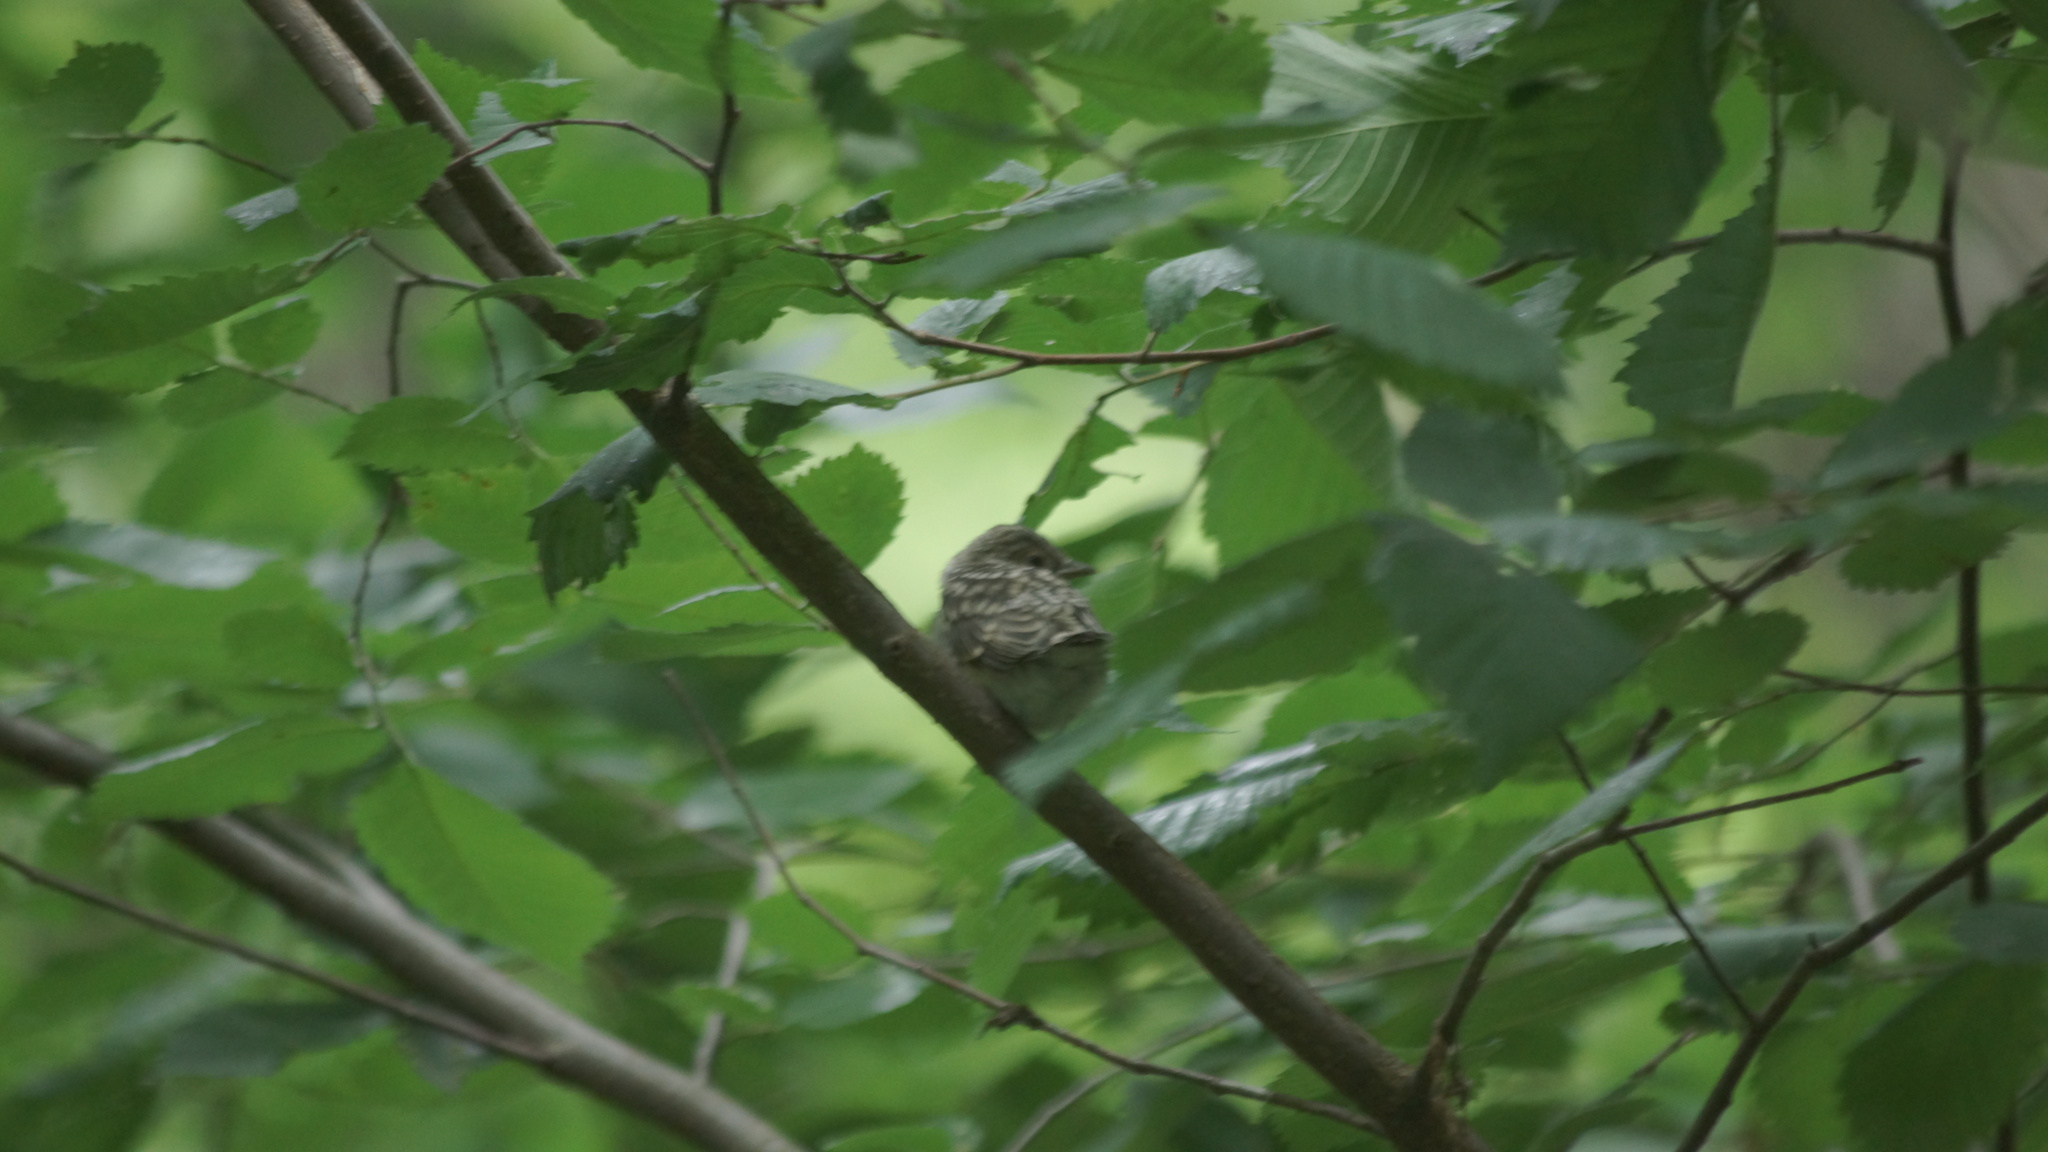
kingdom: Animalia
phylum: Chordata
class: Aves
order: Passeriformes
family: Muscicapidae
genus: Muscicapa
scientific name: Muscicapa striata
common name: Spotted flycatcher
